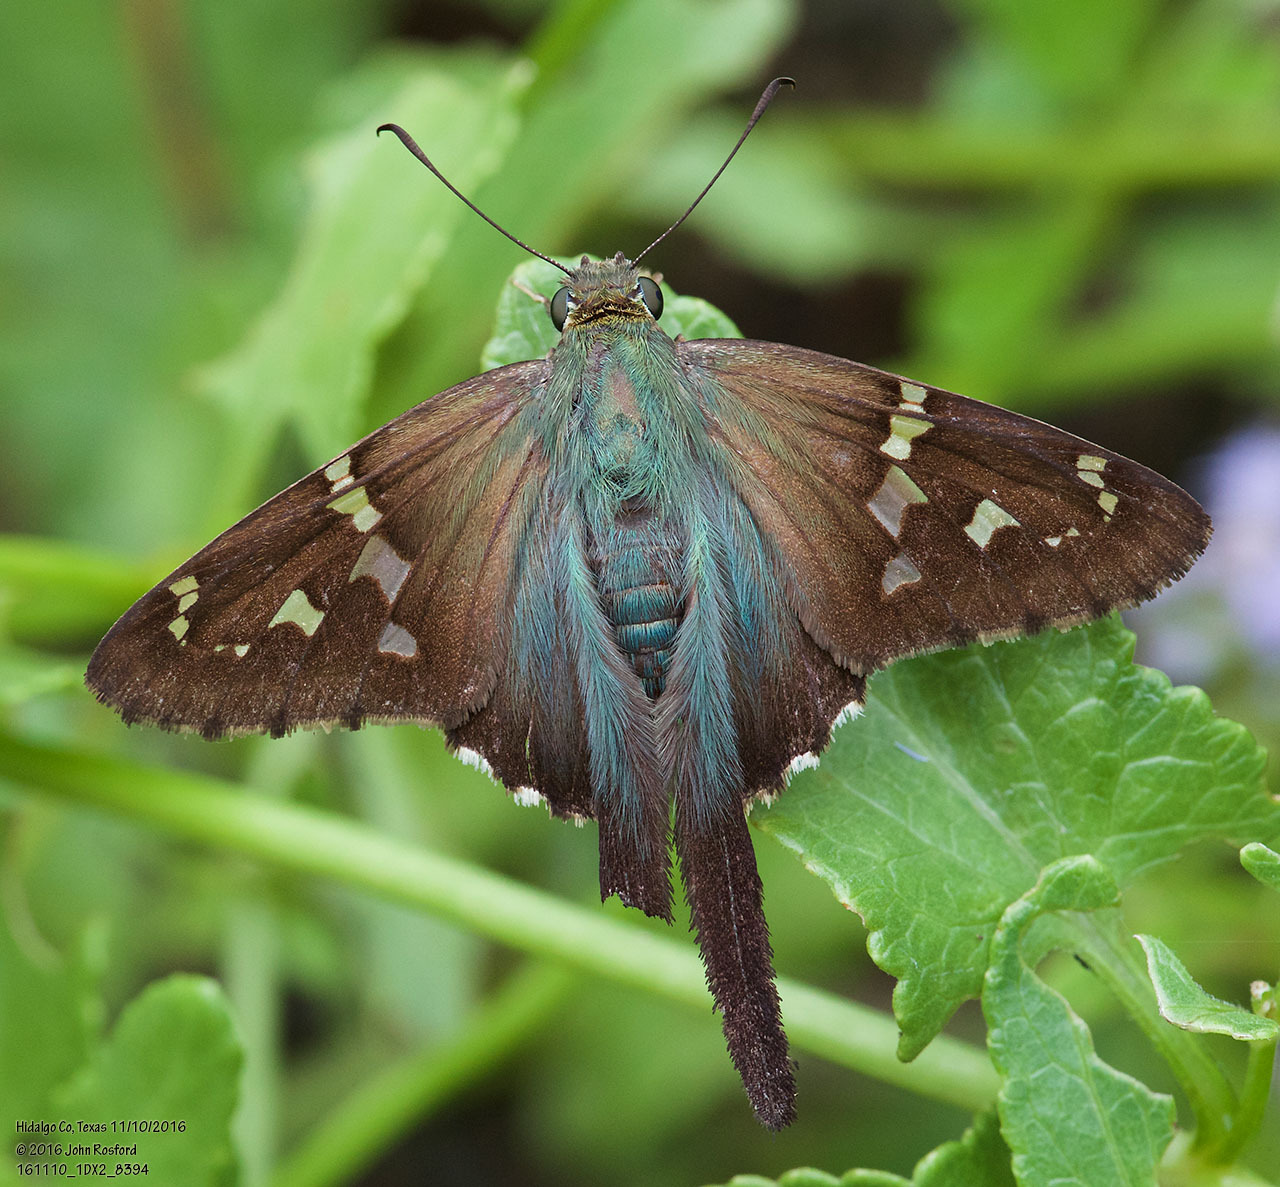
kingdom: Animalia
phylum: Arthropoda
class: Insecta
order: Lepidoptera
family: Hesperiidae
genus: Urbanus
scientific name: Urbanus proteus
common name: Long-tailed skipper
